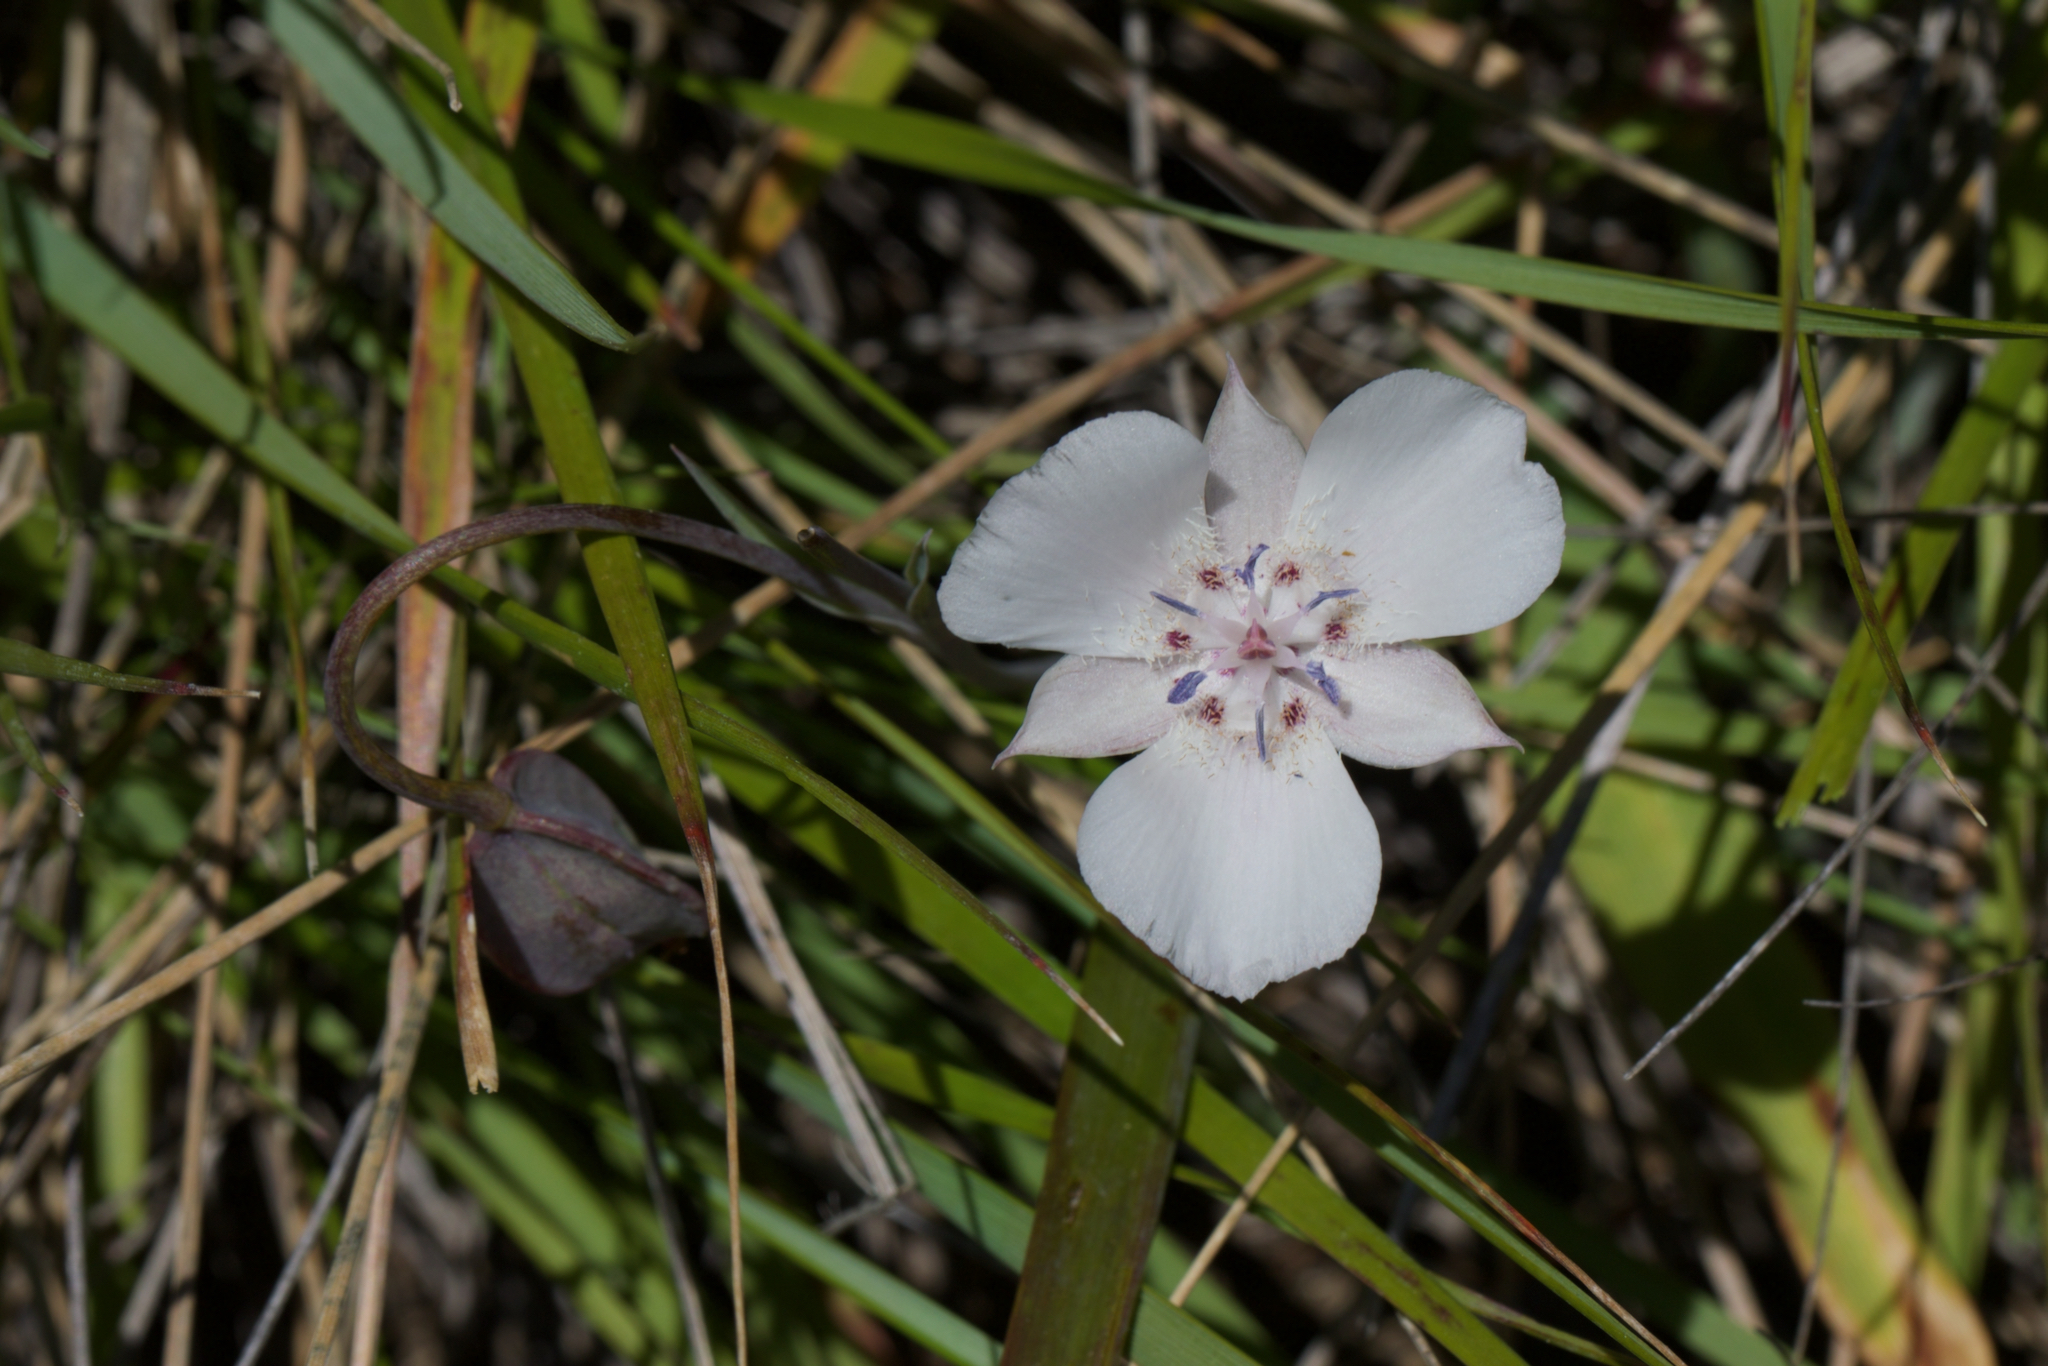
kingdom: Plantae
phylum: Tracheophyta
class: Liliopsida
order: Liliales
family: Liliaceae
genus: Calochortus
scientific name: Calochortus umbellatus
